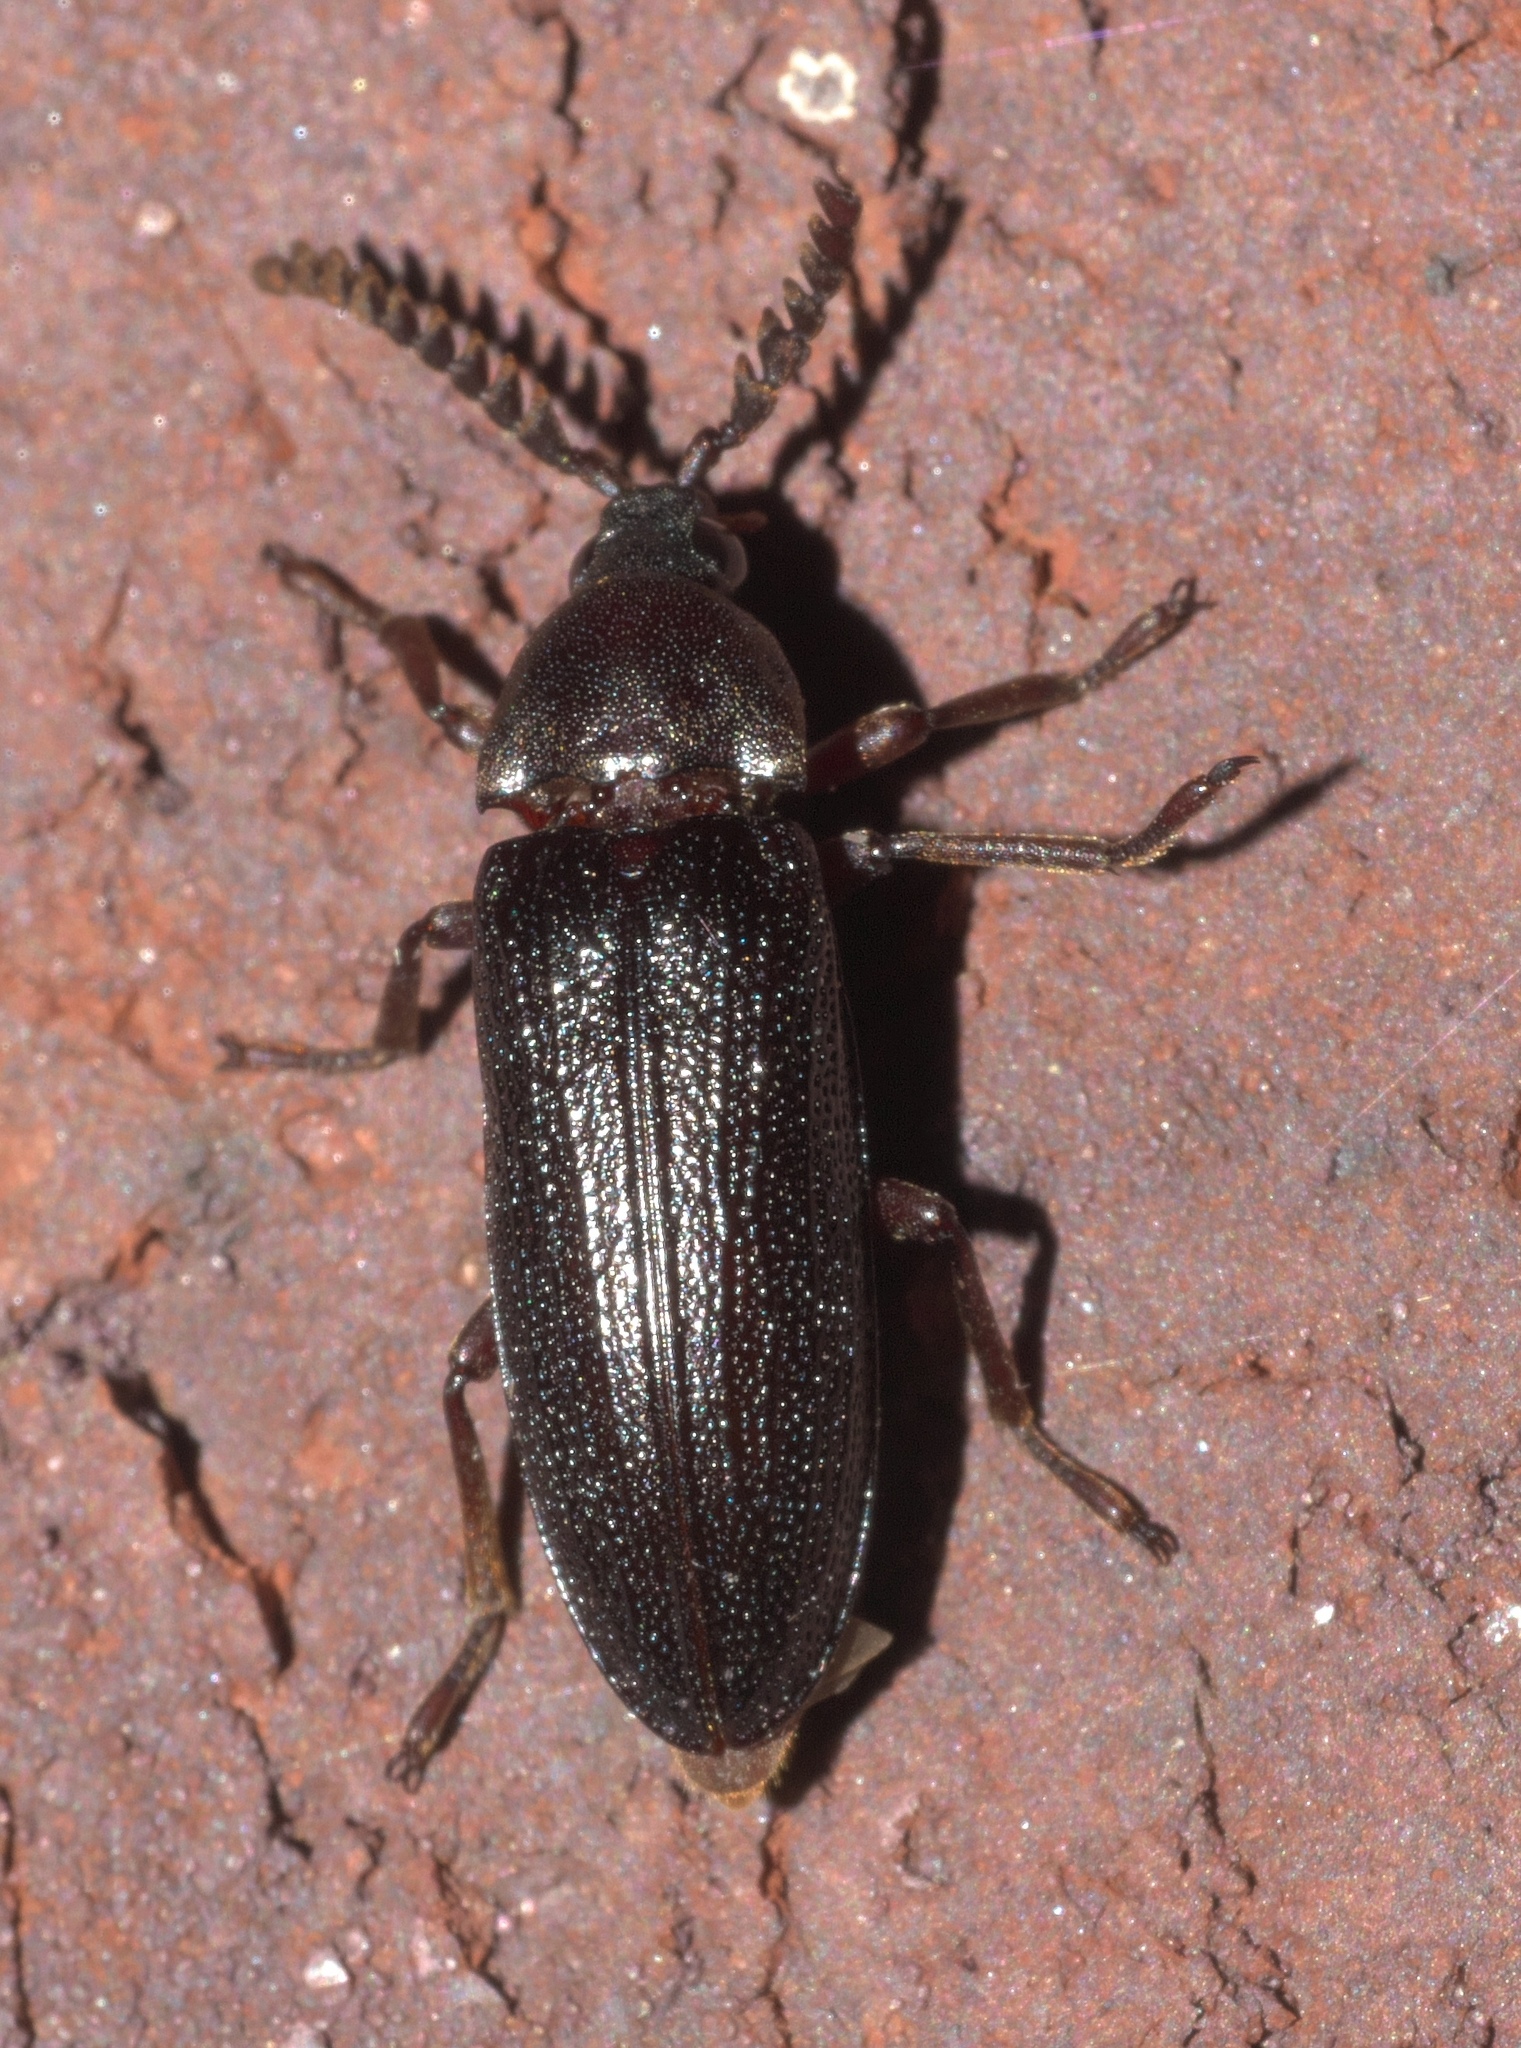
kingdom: Animalia
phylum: Arthropoda
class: Insecta
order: Coleoptera
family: Callirhipidae
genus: Zenoa
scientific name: Zenoa picea
